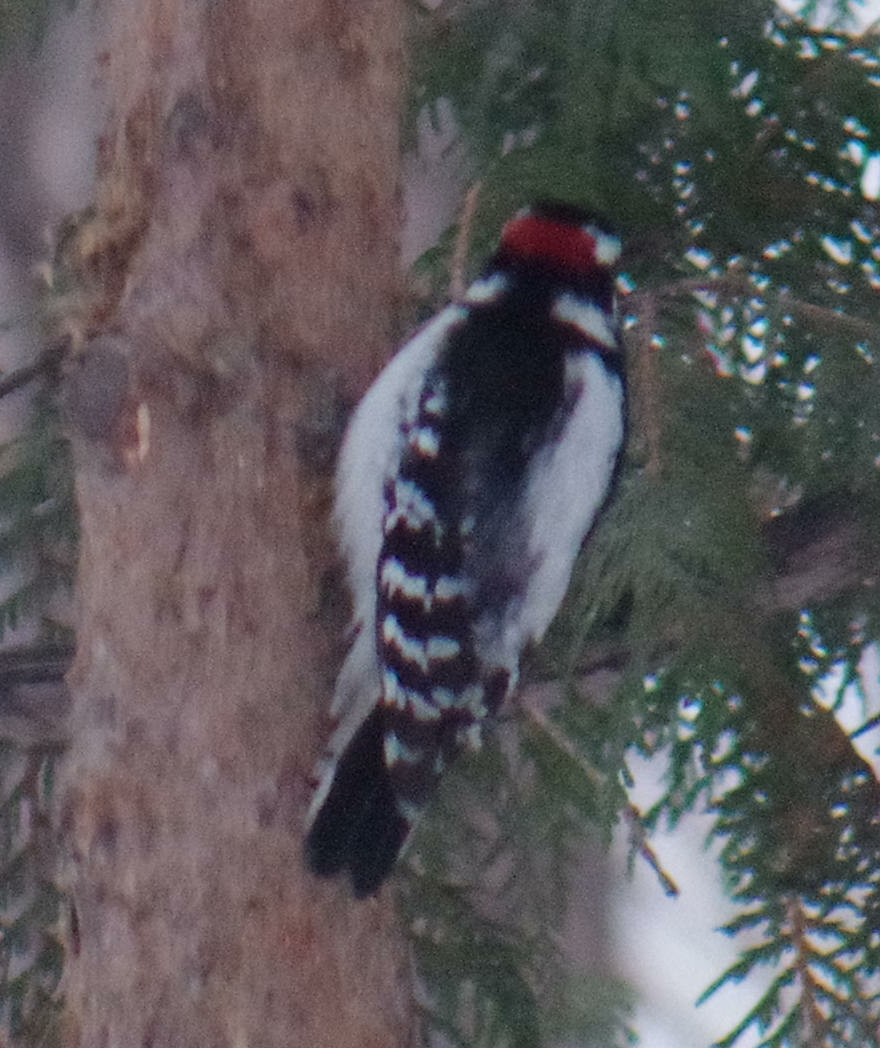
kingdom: Animalia
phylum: Chordata
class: Aves
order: Piciformes
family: Picidae
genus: Dryobates
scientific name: Dryobates pubescens
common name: Downy woodpecker
